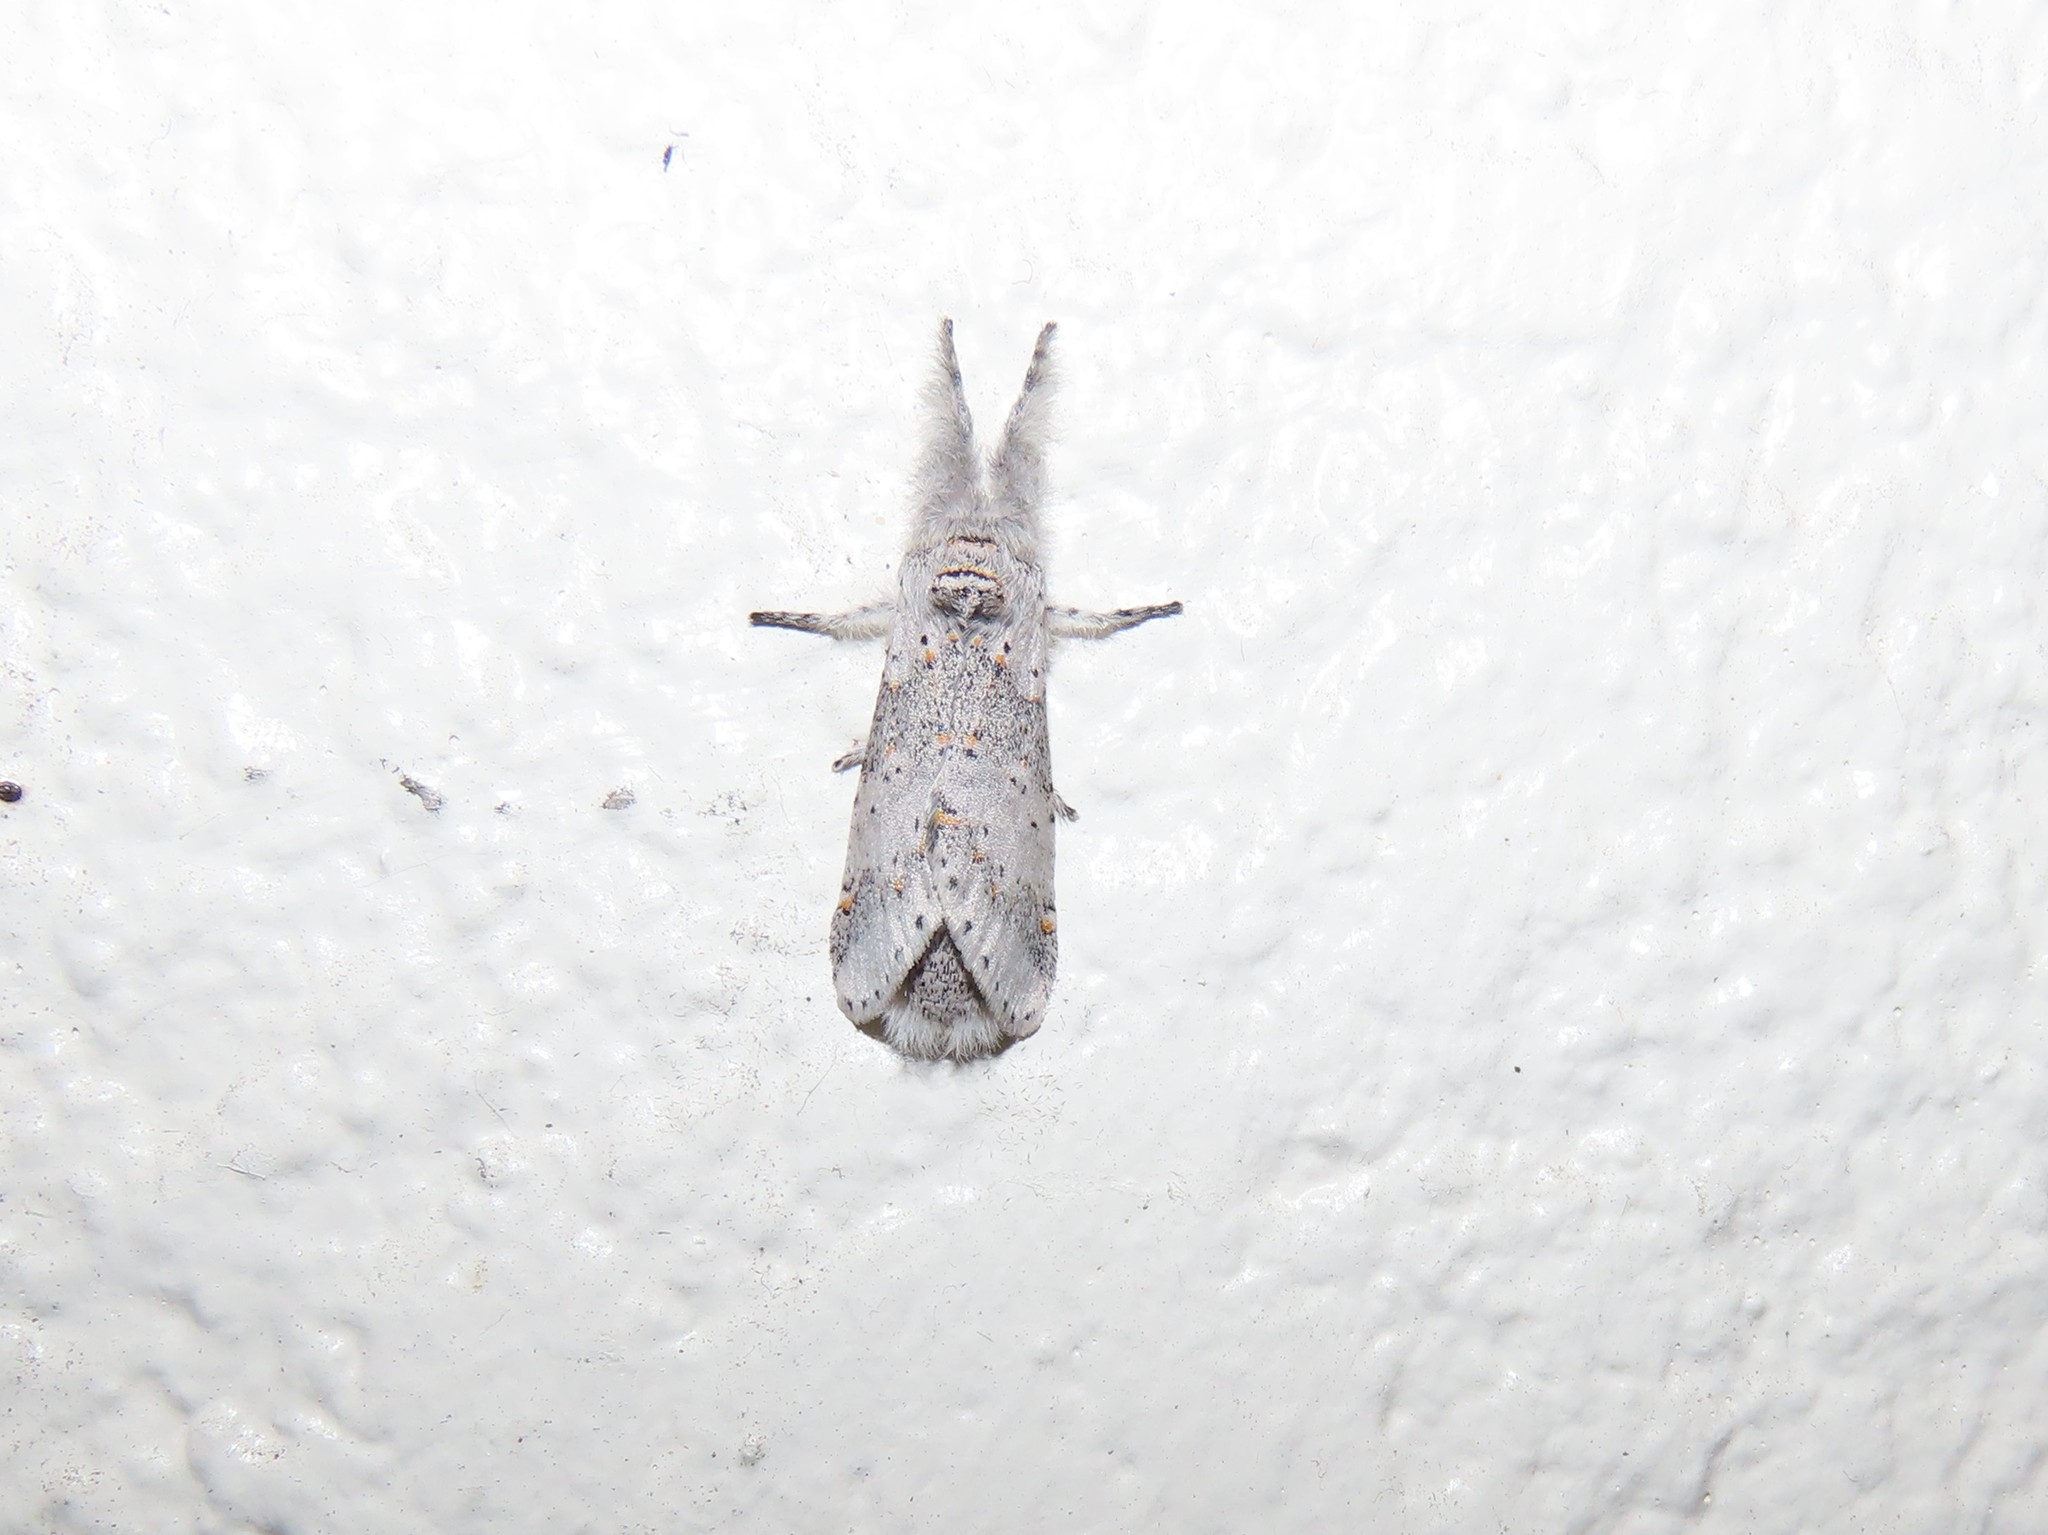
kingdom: Animalia
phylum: Arthropoda
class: Insecta
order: Lepidoptera
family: Notodontidae
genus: Furcula
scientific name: Furcula cinerea
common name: Gray furcula
